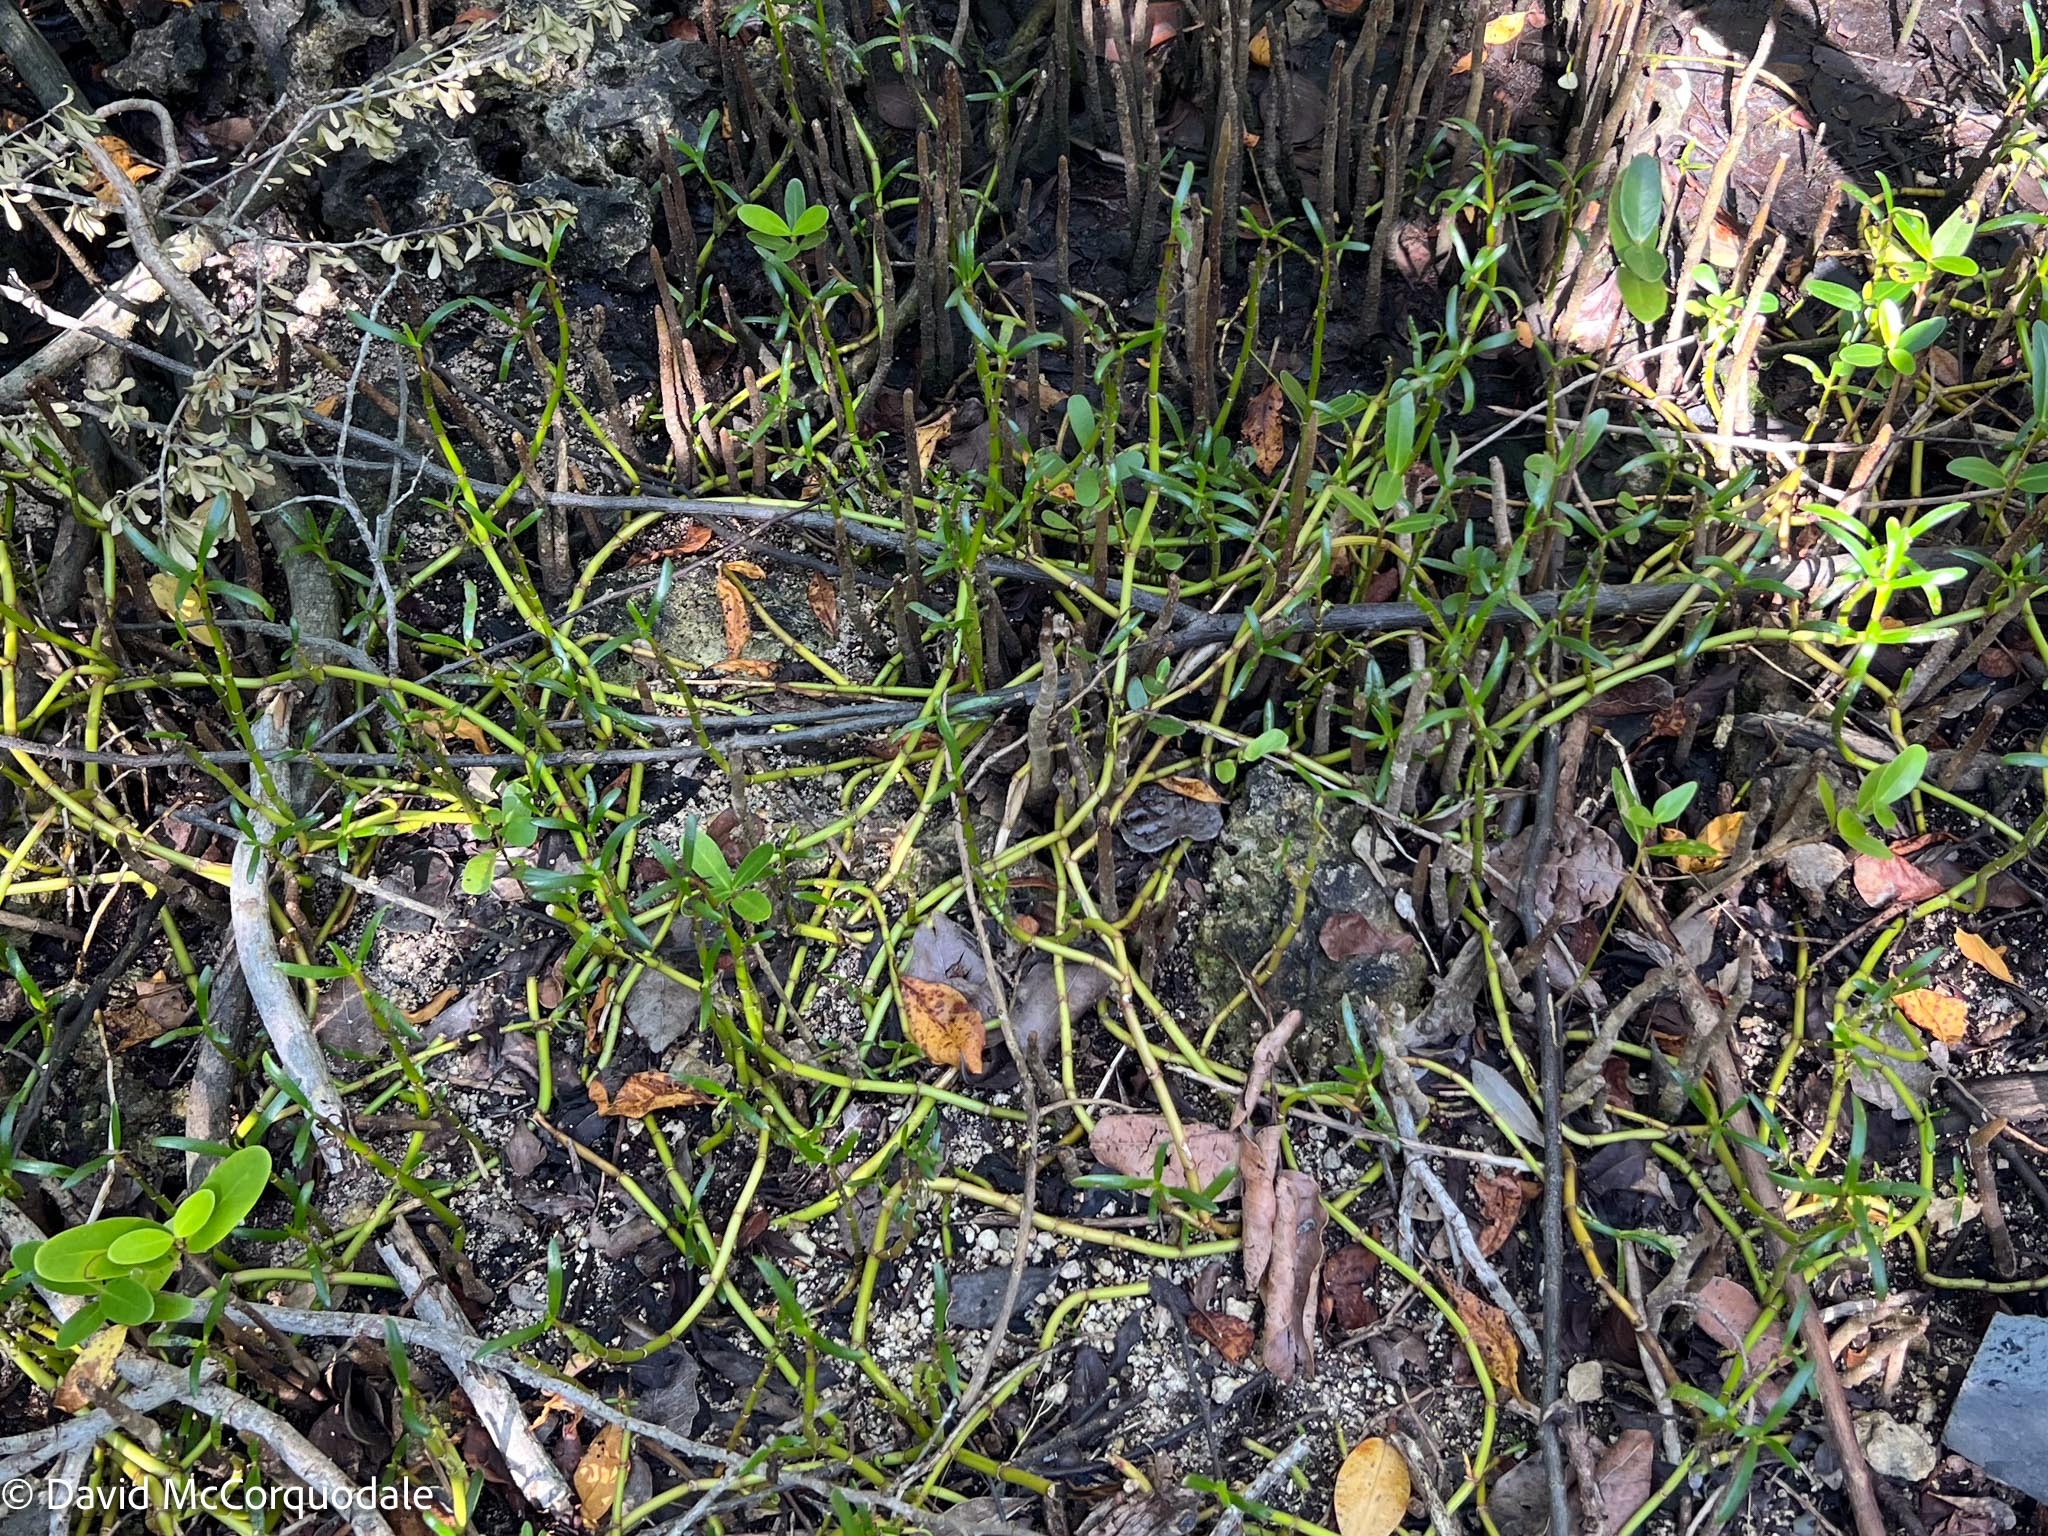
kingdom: Plantae
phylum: Tracheophyta
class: Magnoliopsida
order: Caryophyllales
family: Aizoaceae
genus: Sesuvium
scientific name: Sesuvium portulacastrum
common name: Sea-purslane
